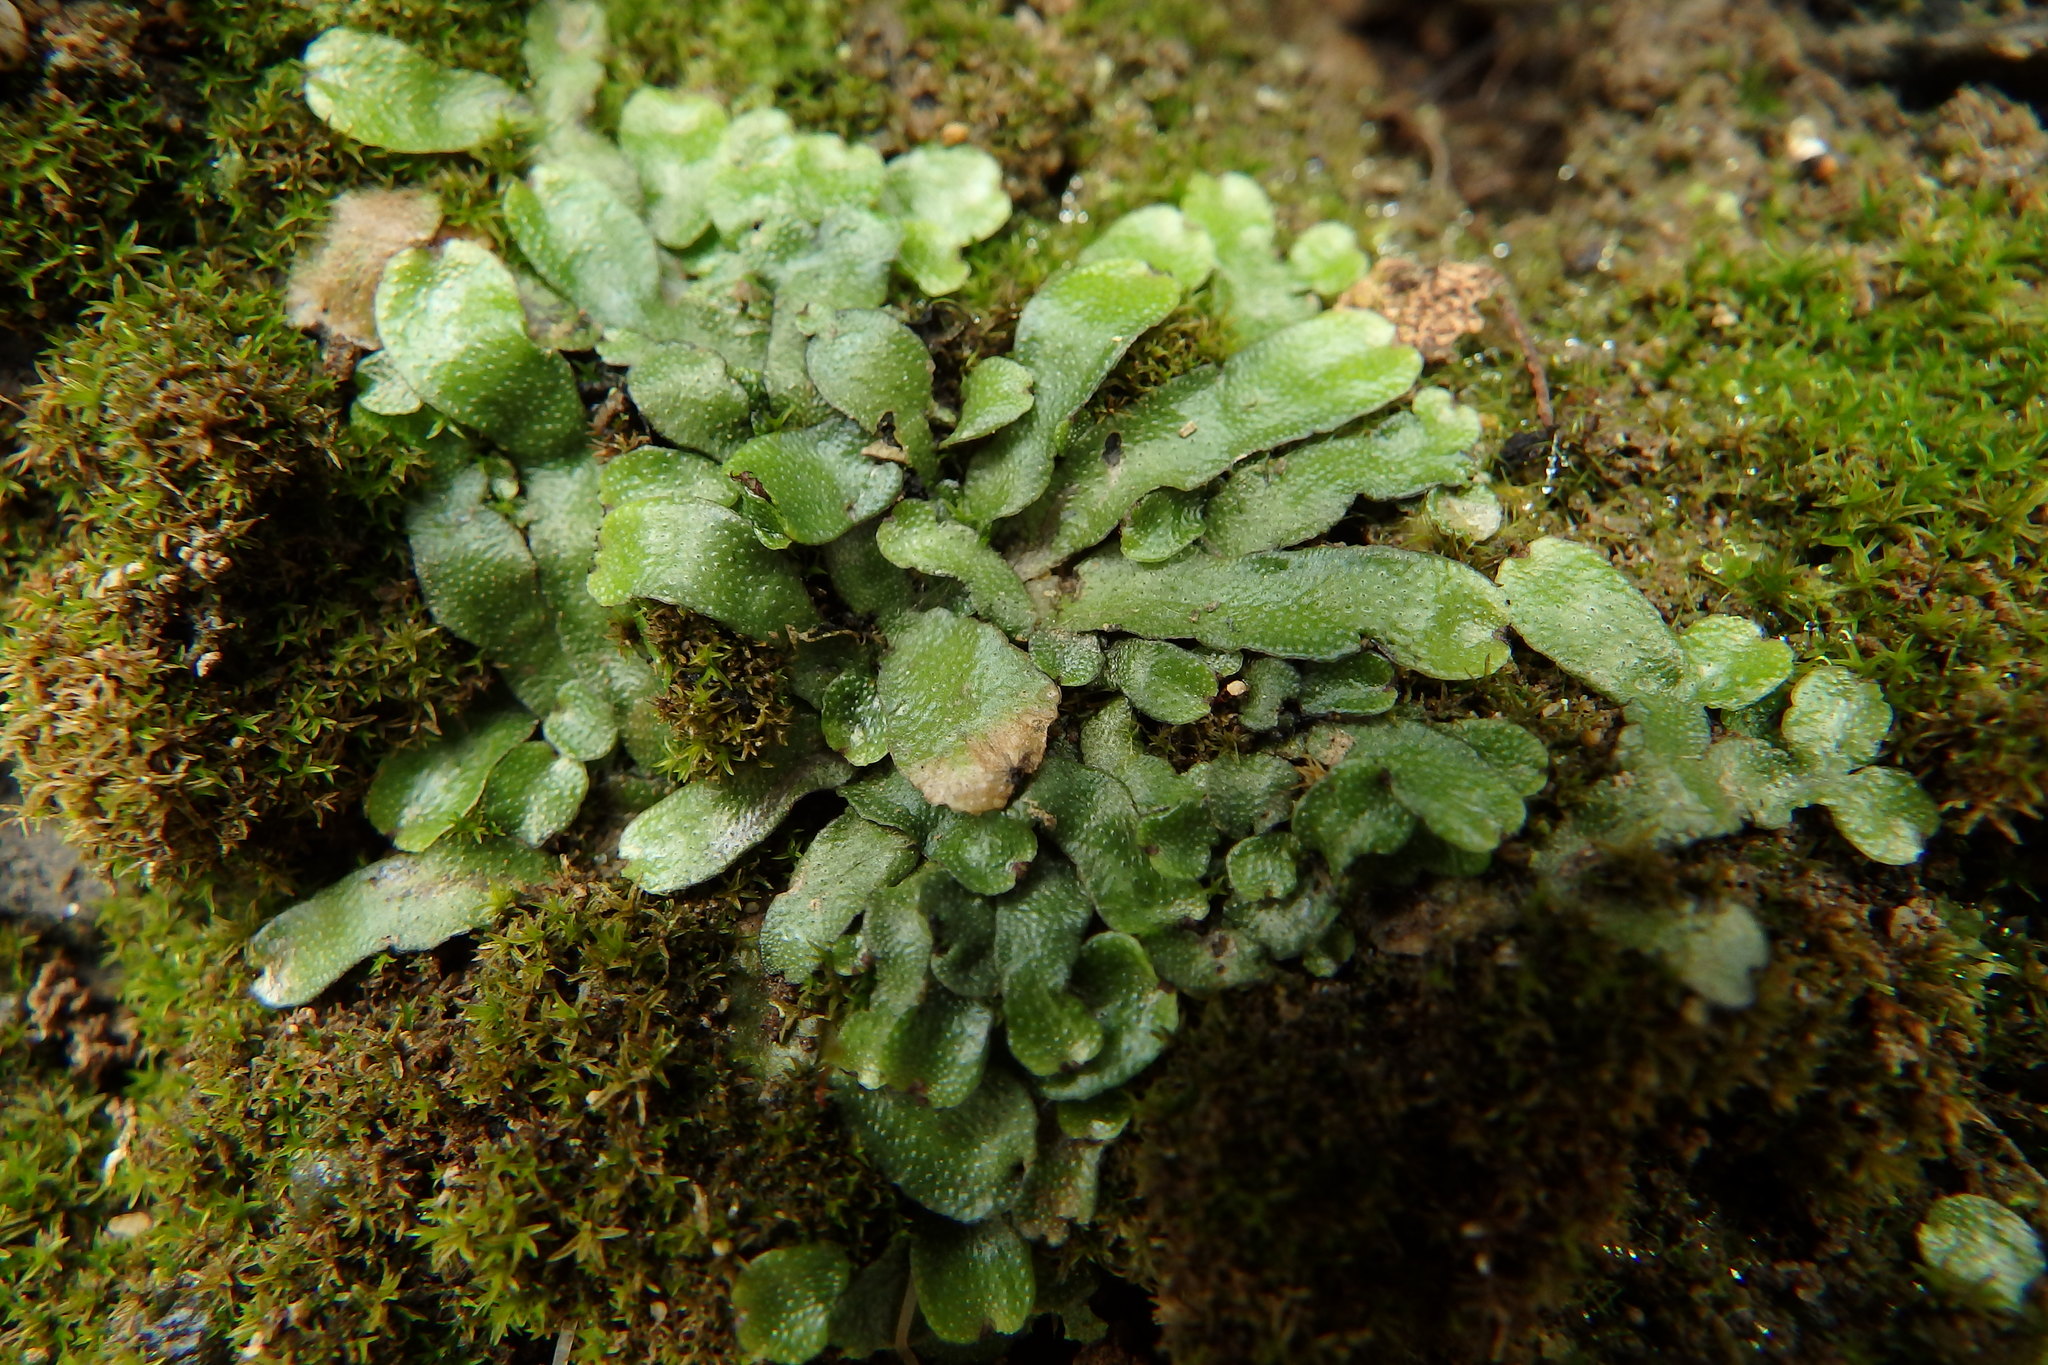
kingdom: Plantae
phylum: Marchantiophyta
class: Marchantiopsida
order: Marchantiales
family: Conocephalaceae
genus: Conocephalum
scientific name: Conocephalum conicum
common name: Great scented liverwort
